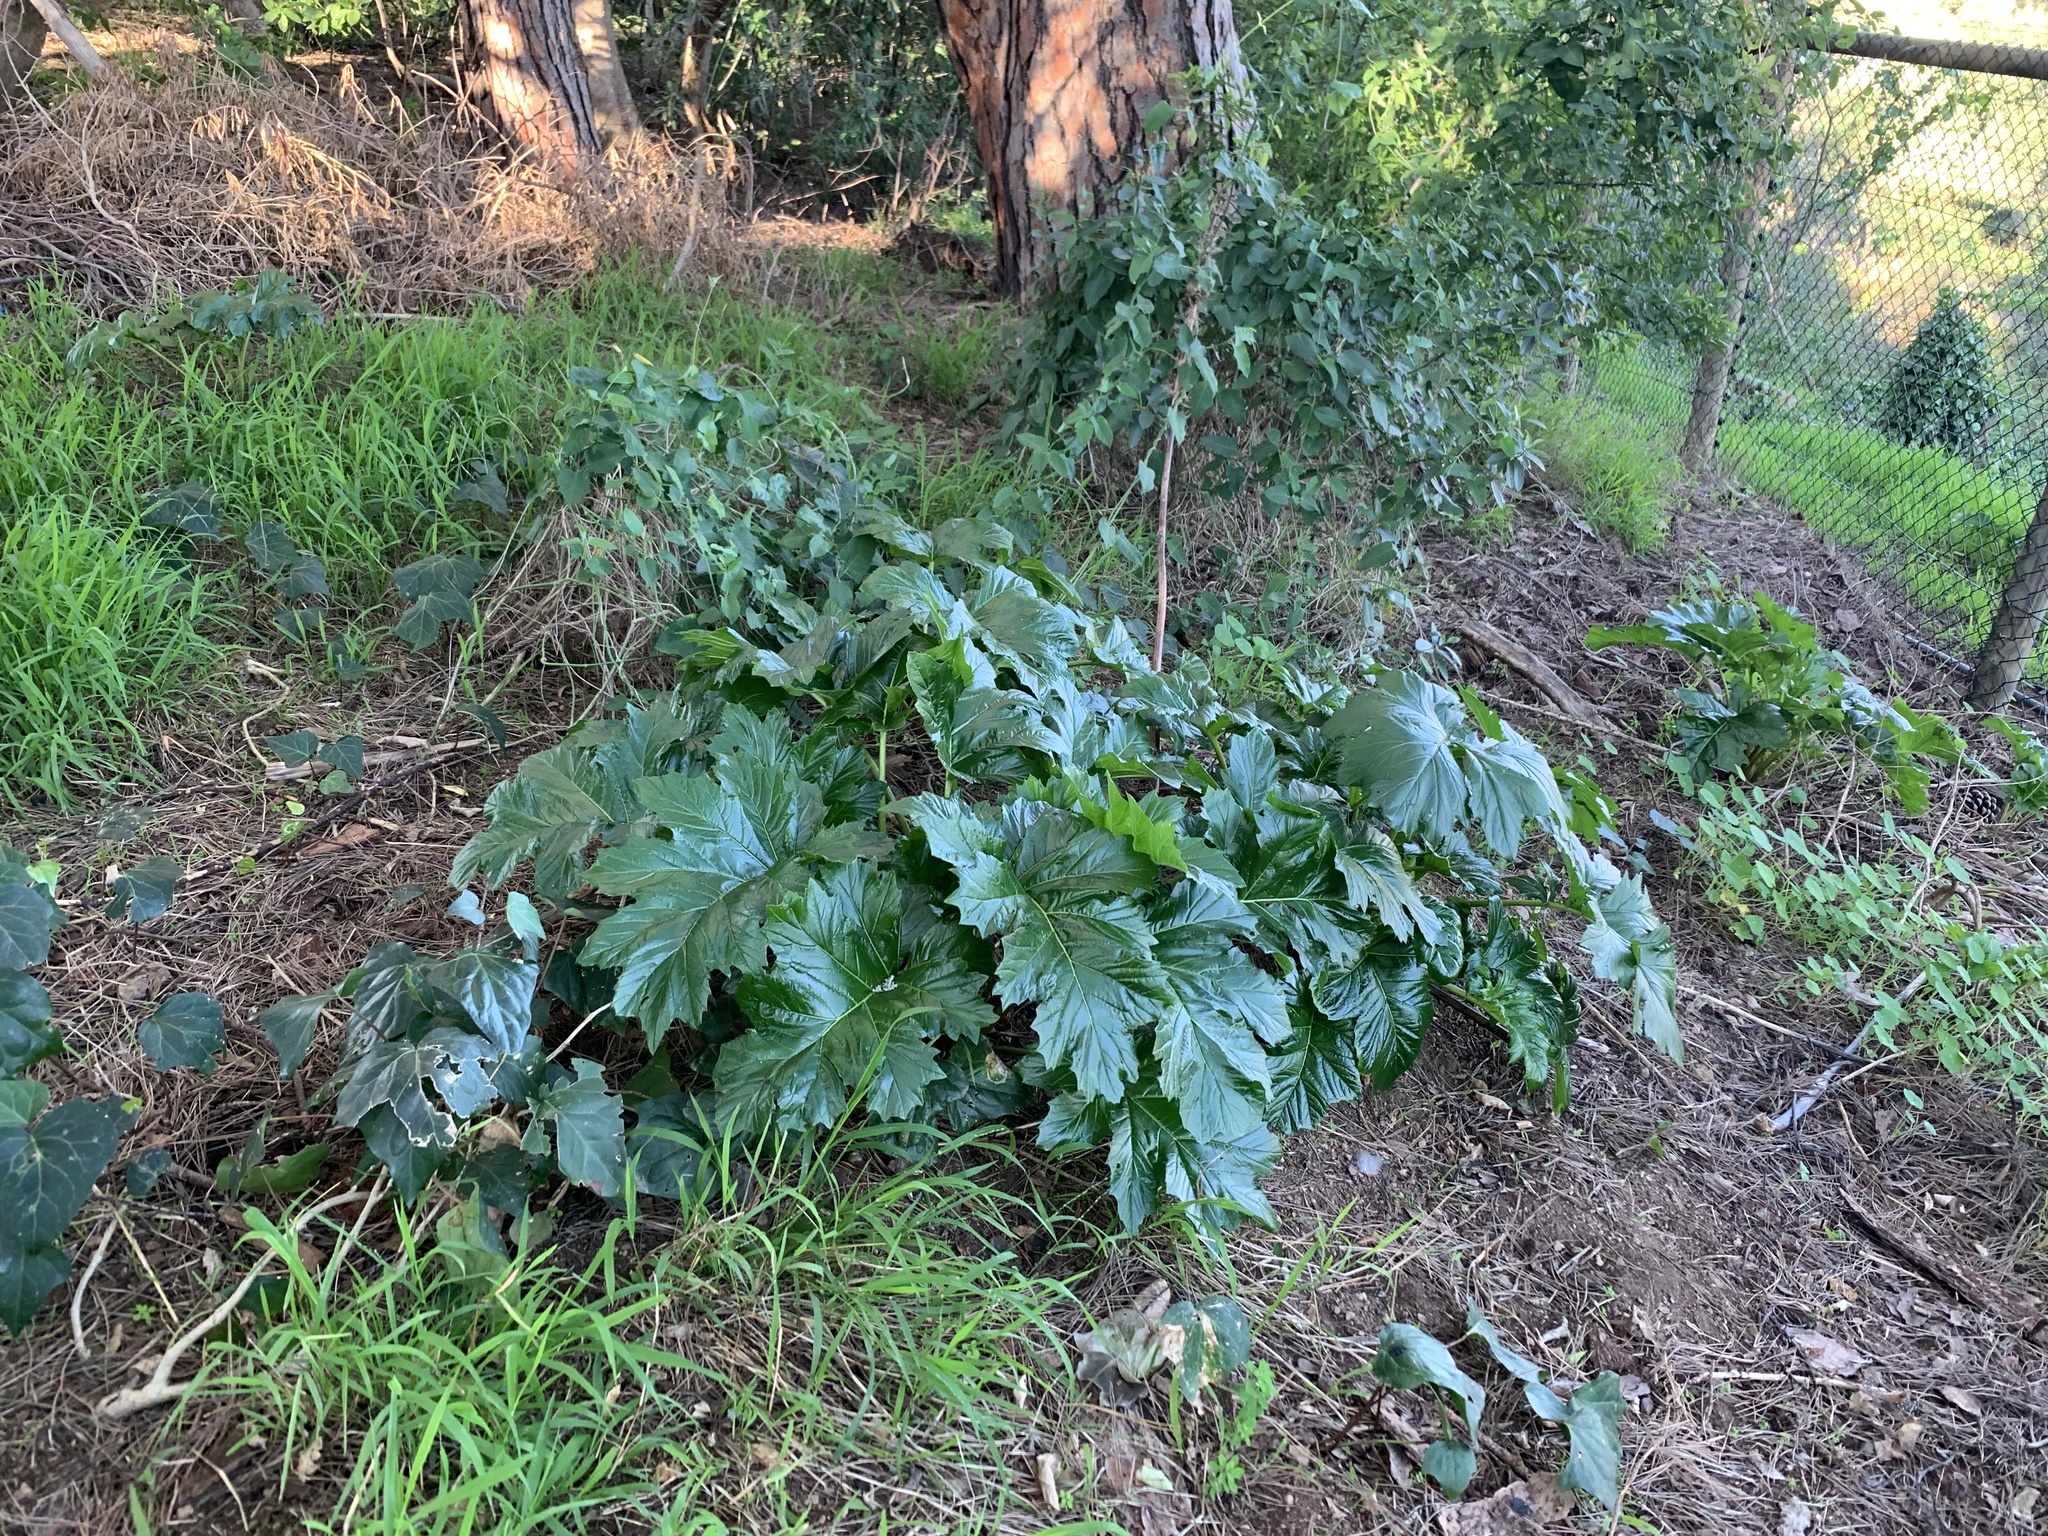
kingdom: Plantae
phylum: Tracheophyta
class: Magnoliopsida
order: Lamiales
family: Acanthaceae
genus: Acanthus
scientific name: Acanthus mollis
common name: Bear's-breech
